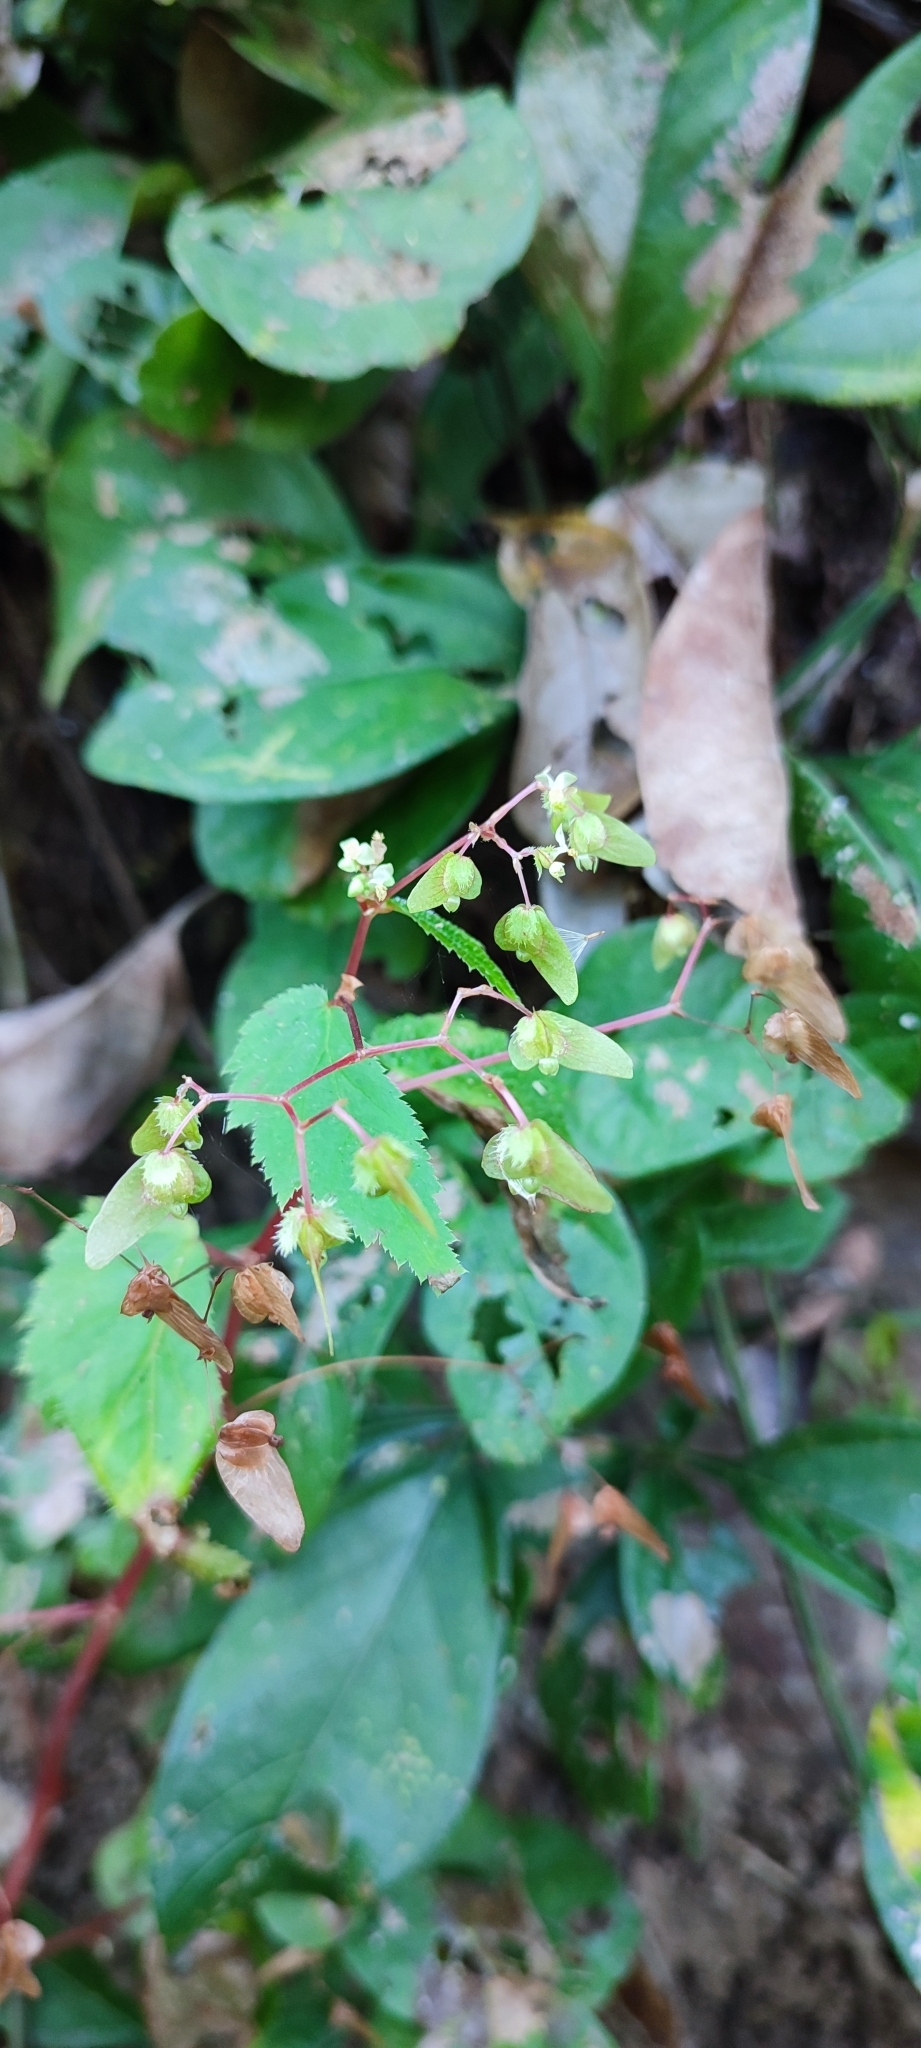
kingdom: Plantae
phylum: Tracheophyta
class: Magnoliopsida
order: Cucurbitales
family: Begoniaceae
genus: Begonia
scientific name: Begonia hirsuta
